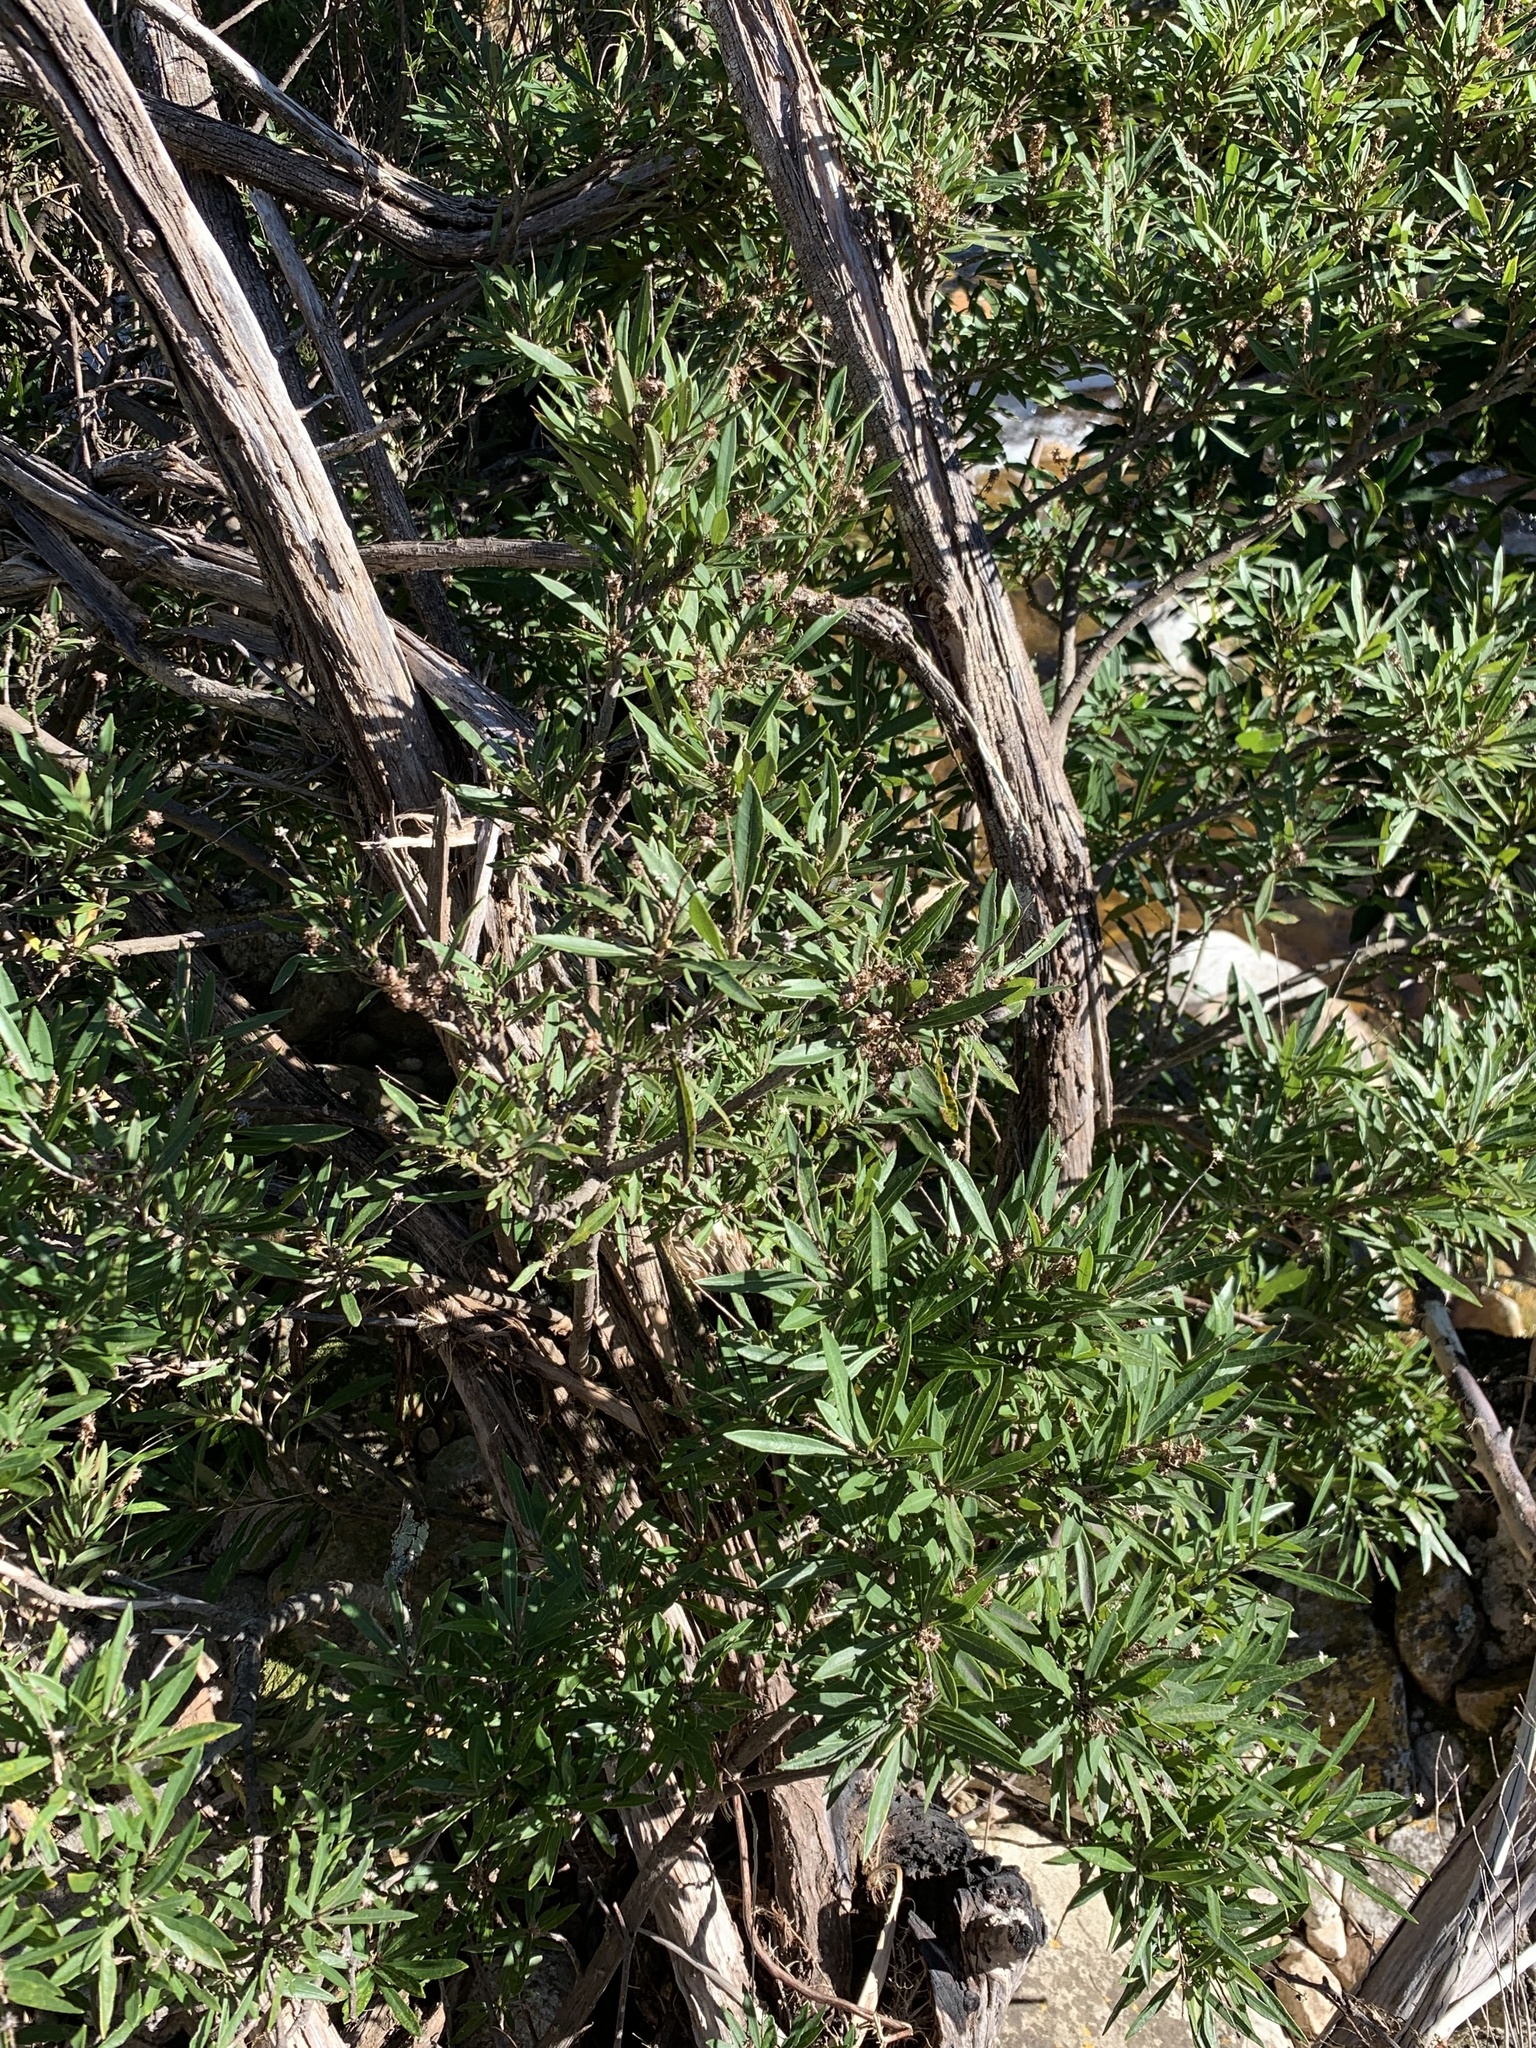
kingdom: Plantae
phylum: Tracheophyta
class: Magnoliopsida
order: Asterales
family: Asteraceae
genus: Brachylaena
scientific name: Brachylaena neriifolia
